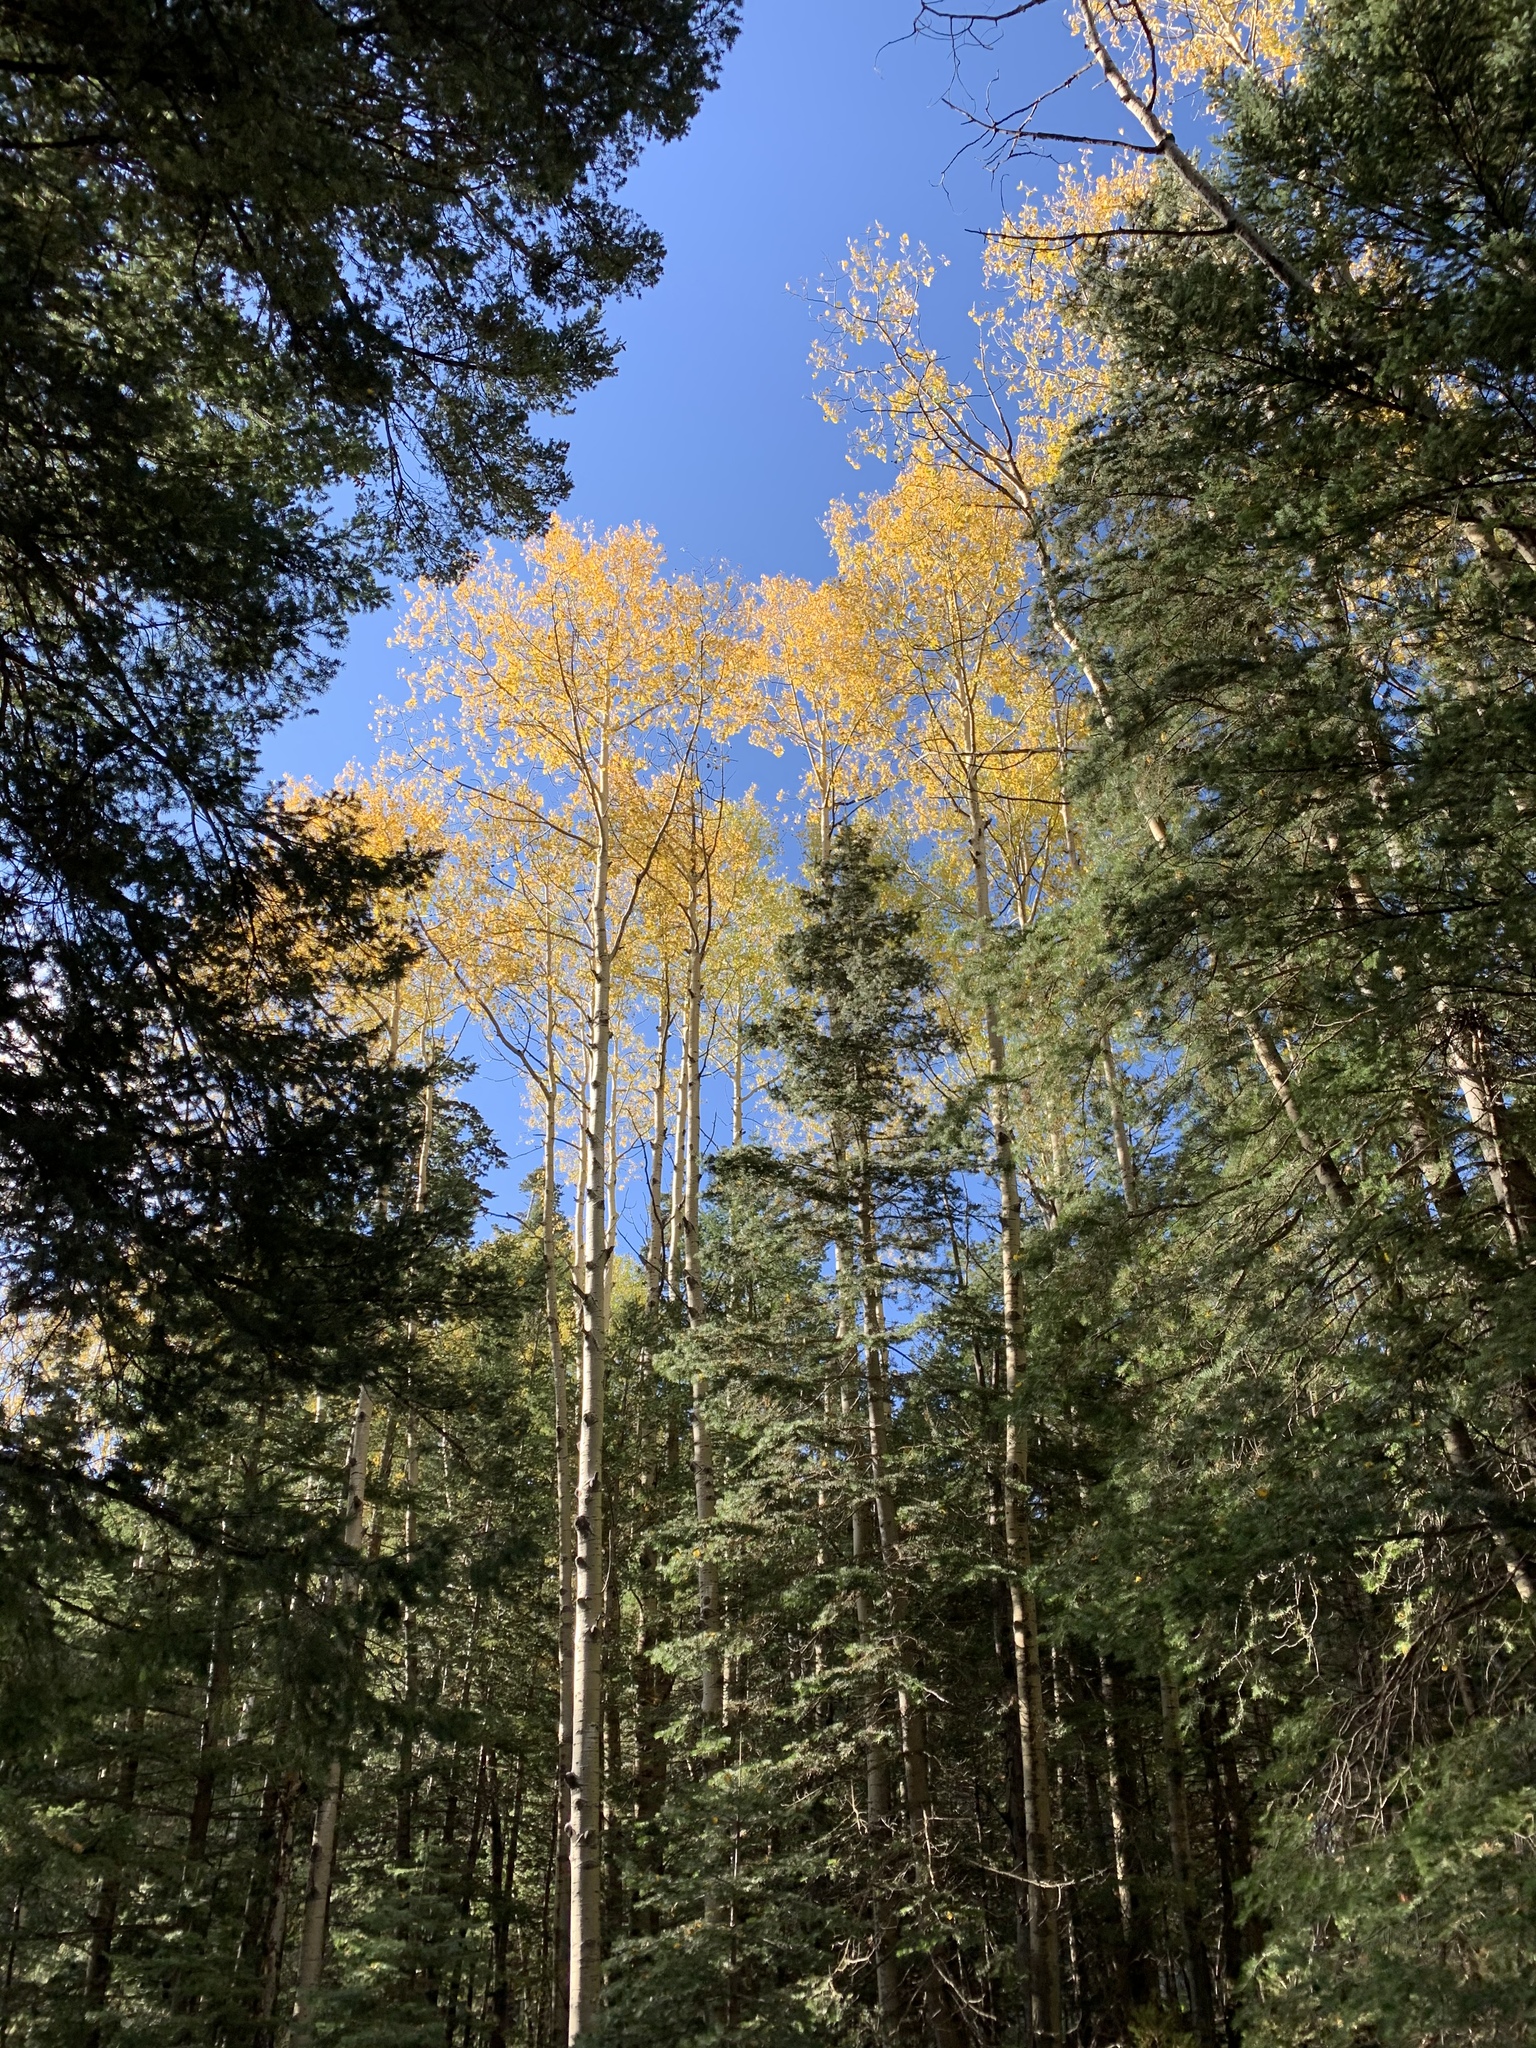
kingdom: Plantae
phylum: Tracheophyta
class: Magnoliopsida
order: Malpighiales
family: Salicaceae
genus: Populus
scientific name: Populus tremuloides
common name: Quaking aspen
